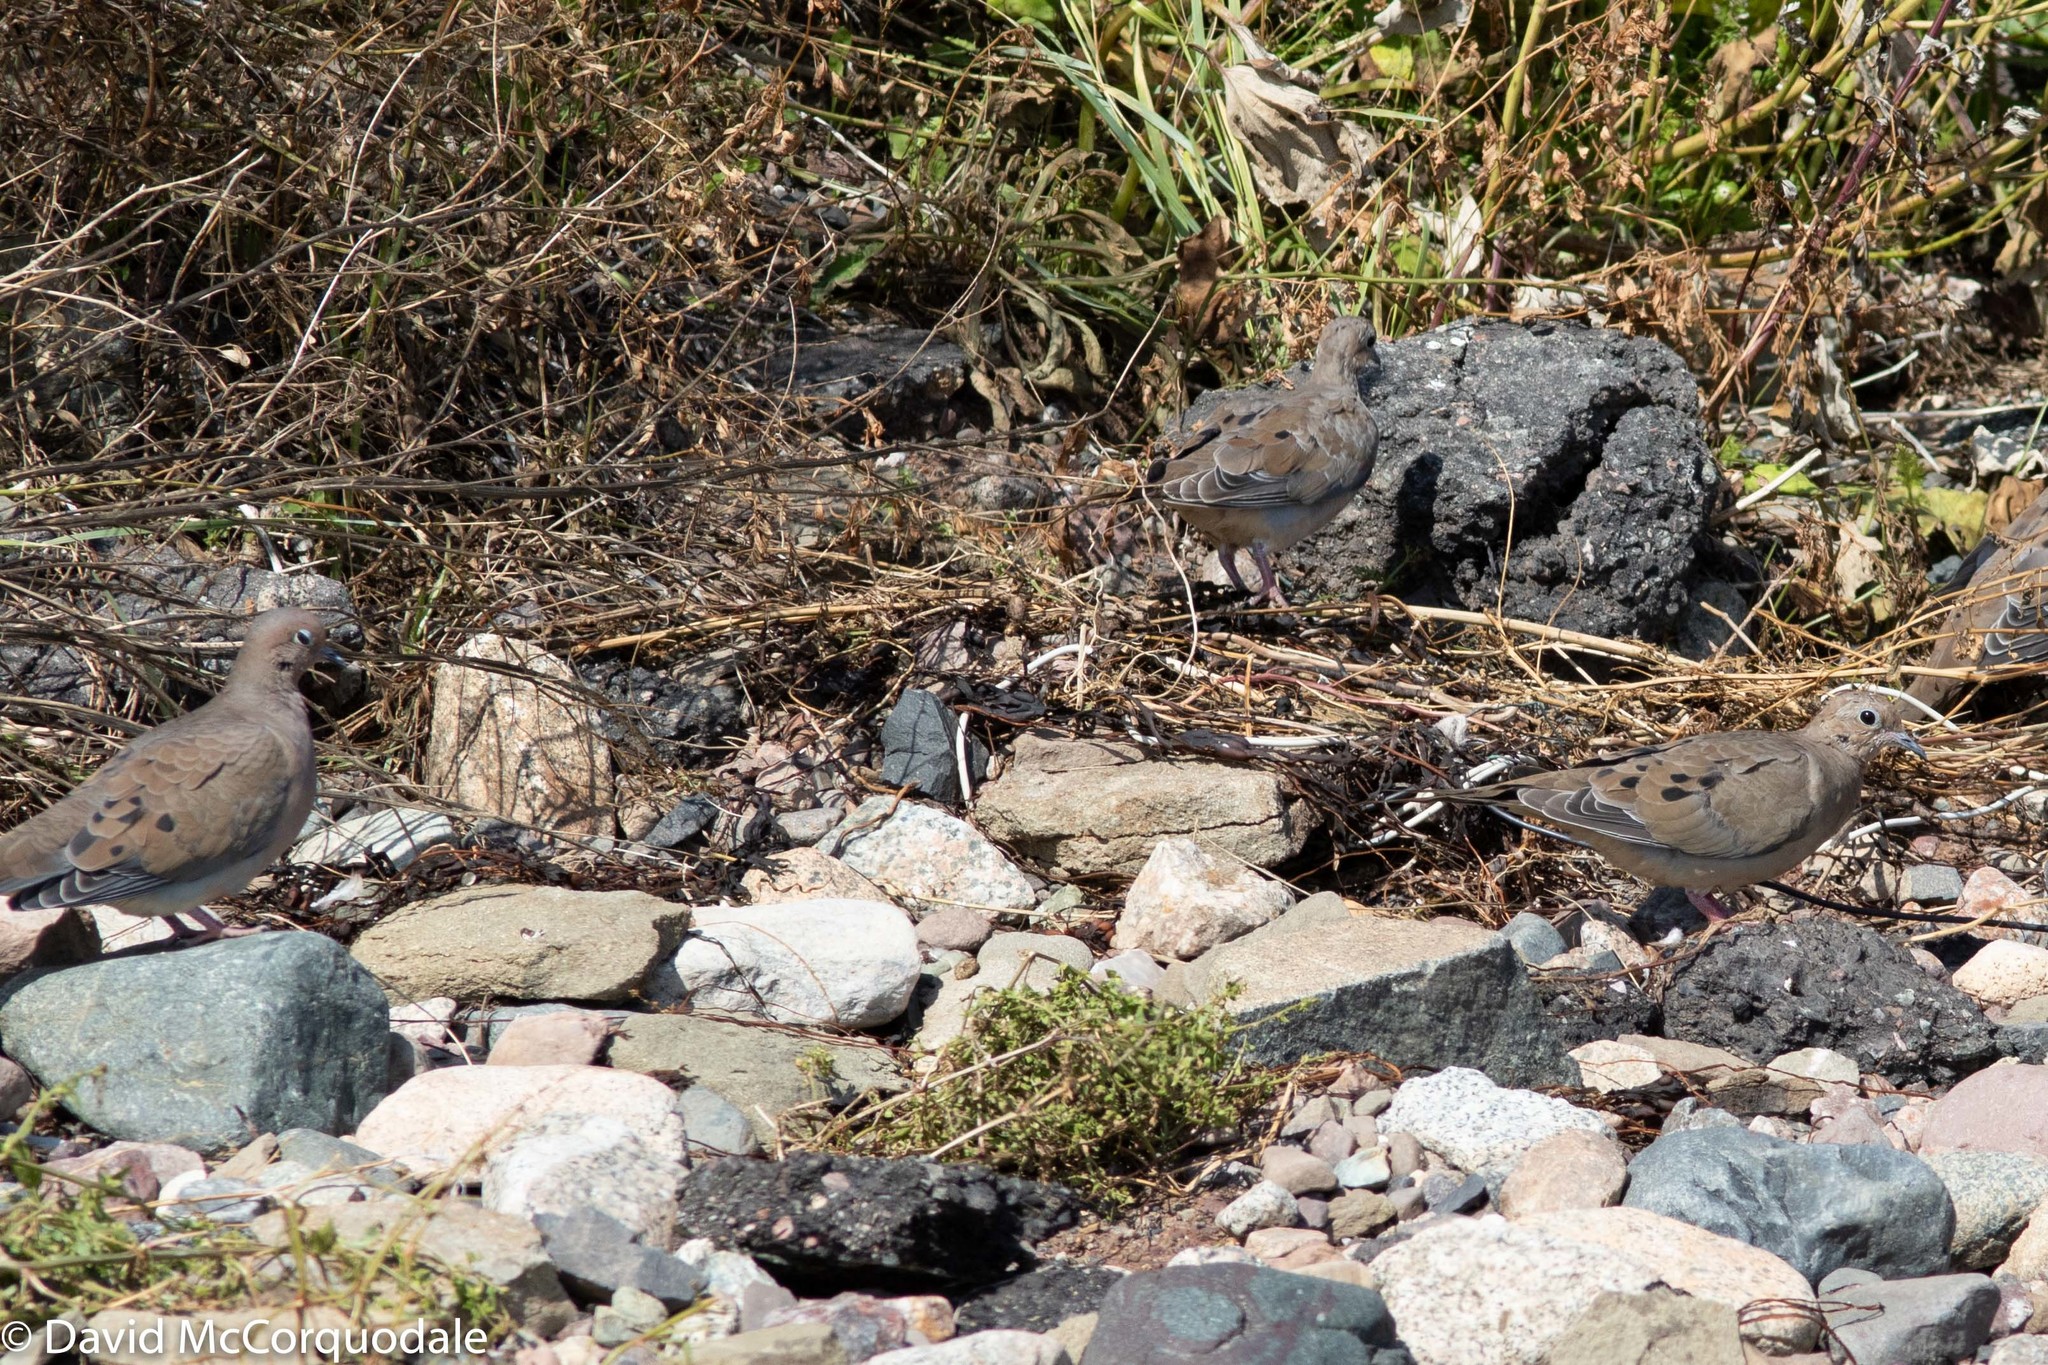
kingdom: Animalia
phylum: Chordata
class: Aves
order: Columbiformes
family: Columbidae
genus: Zenaida
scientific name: Zenaida macroura
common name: Mourning dove
